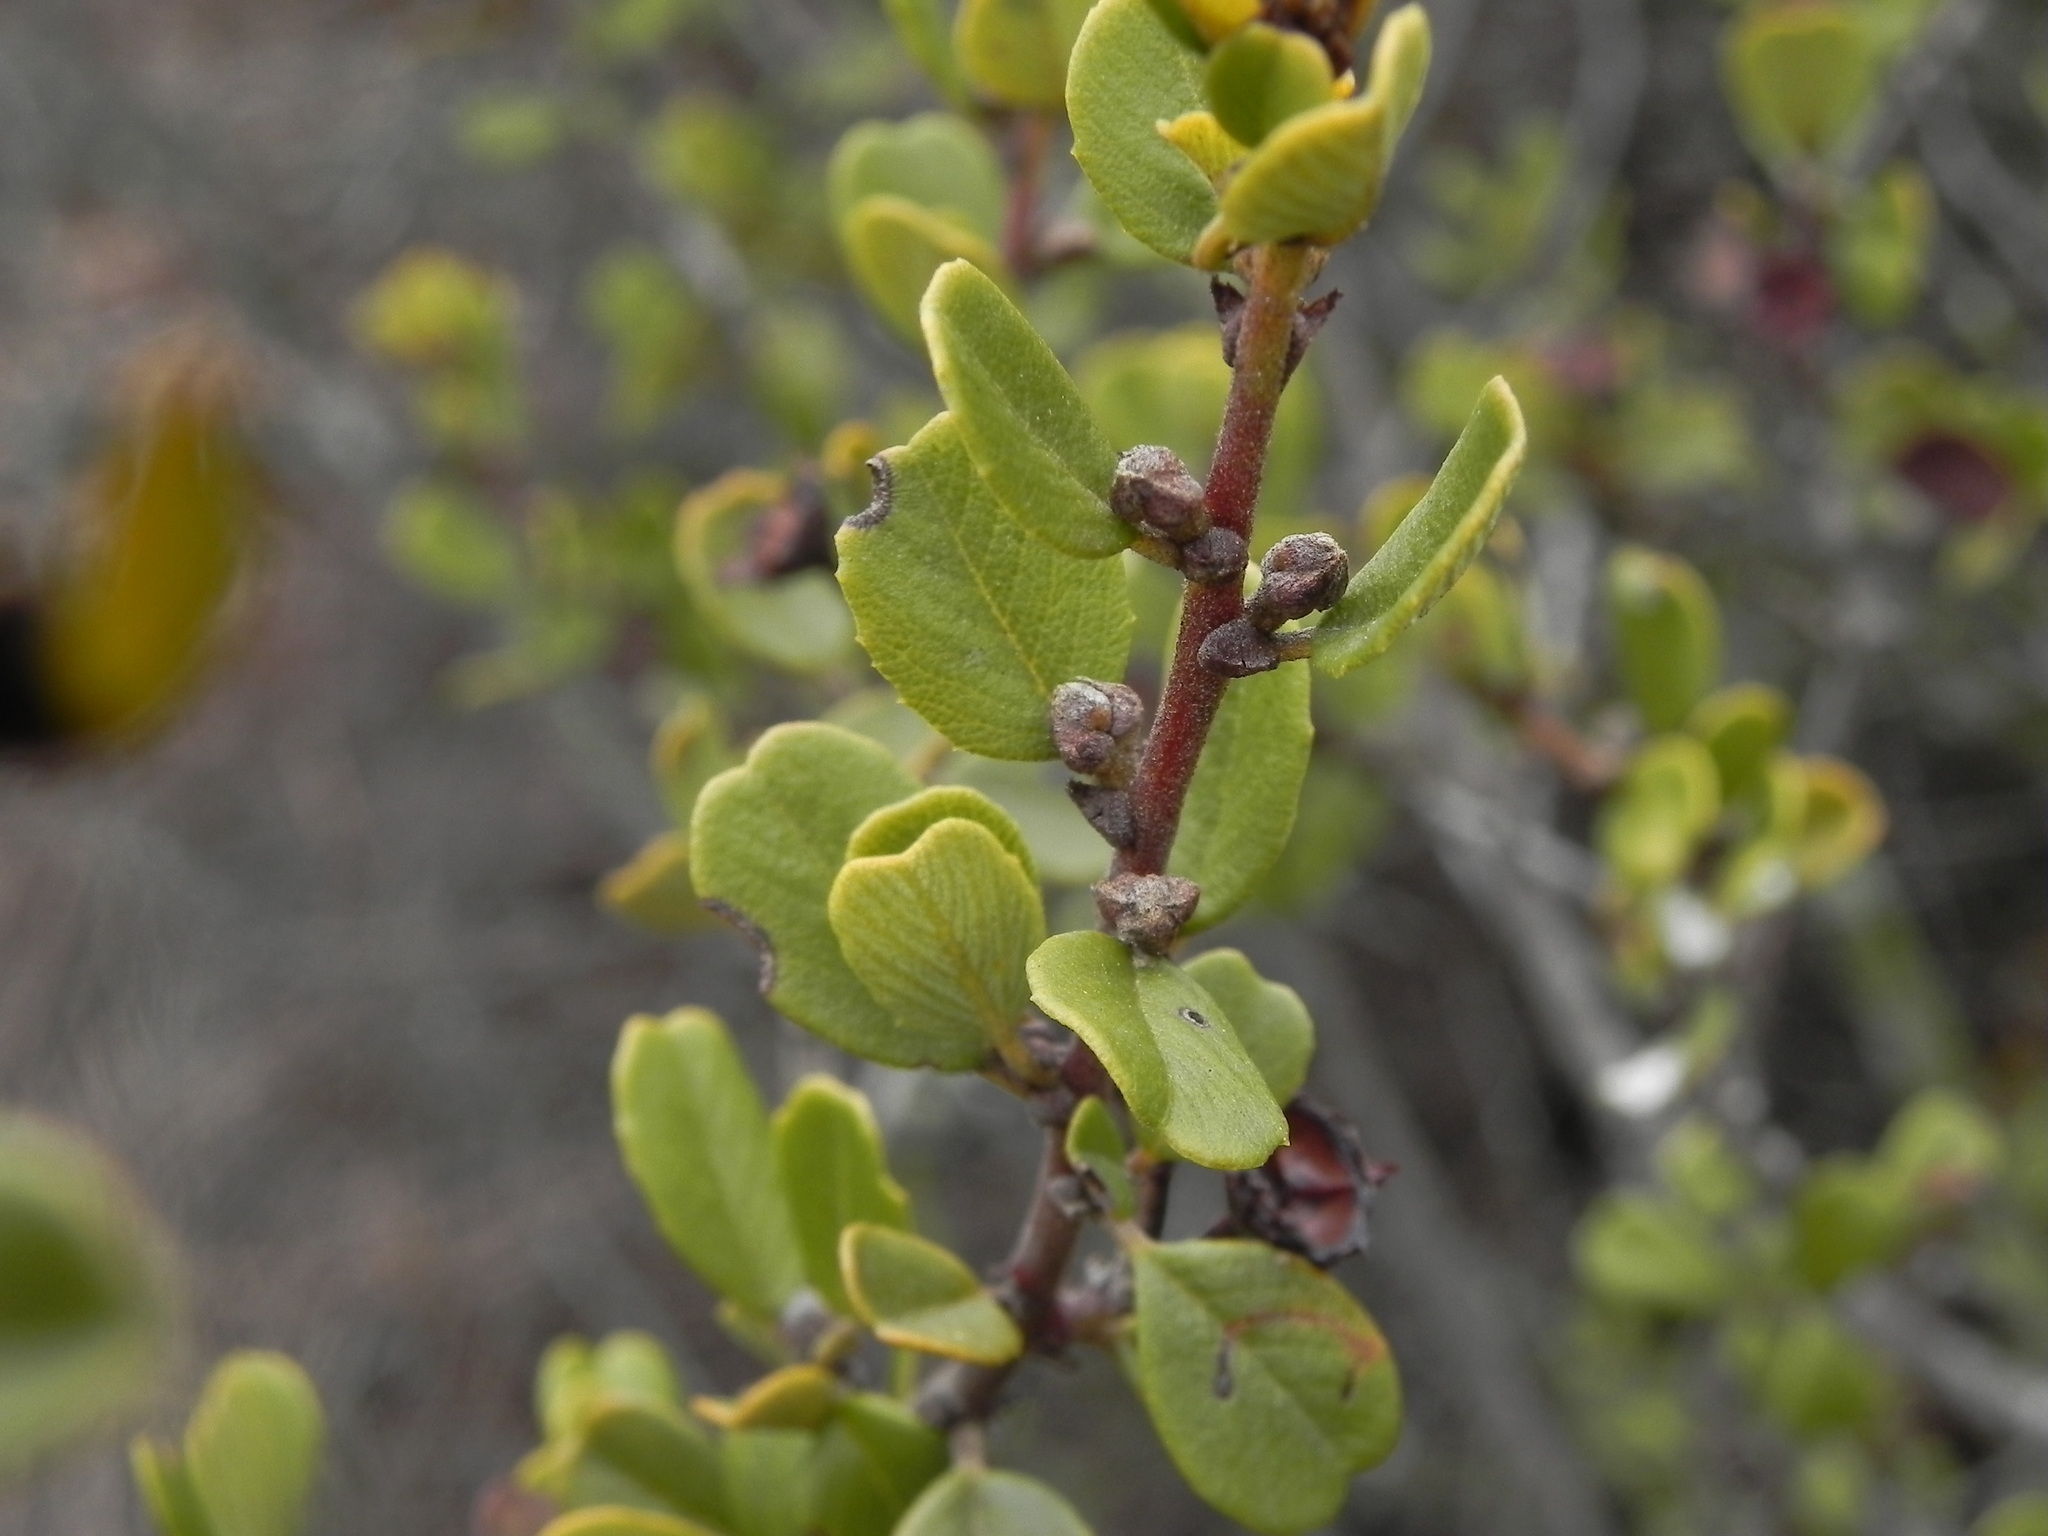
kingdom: Plantae
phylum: Tracheophyta
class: Magnoliopsida
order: Rosales
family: Rhamnaceae
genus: Ceanothus
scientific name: Ceanothus verrucosus
